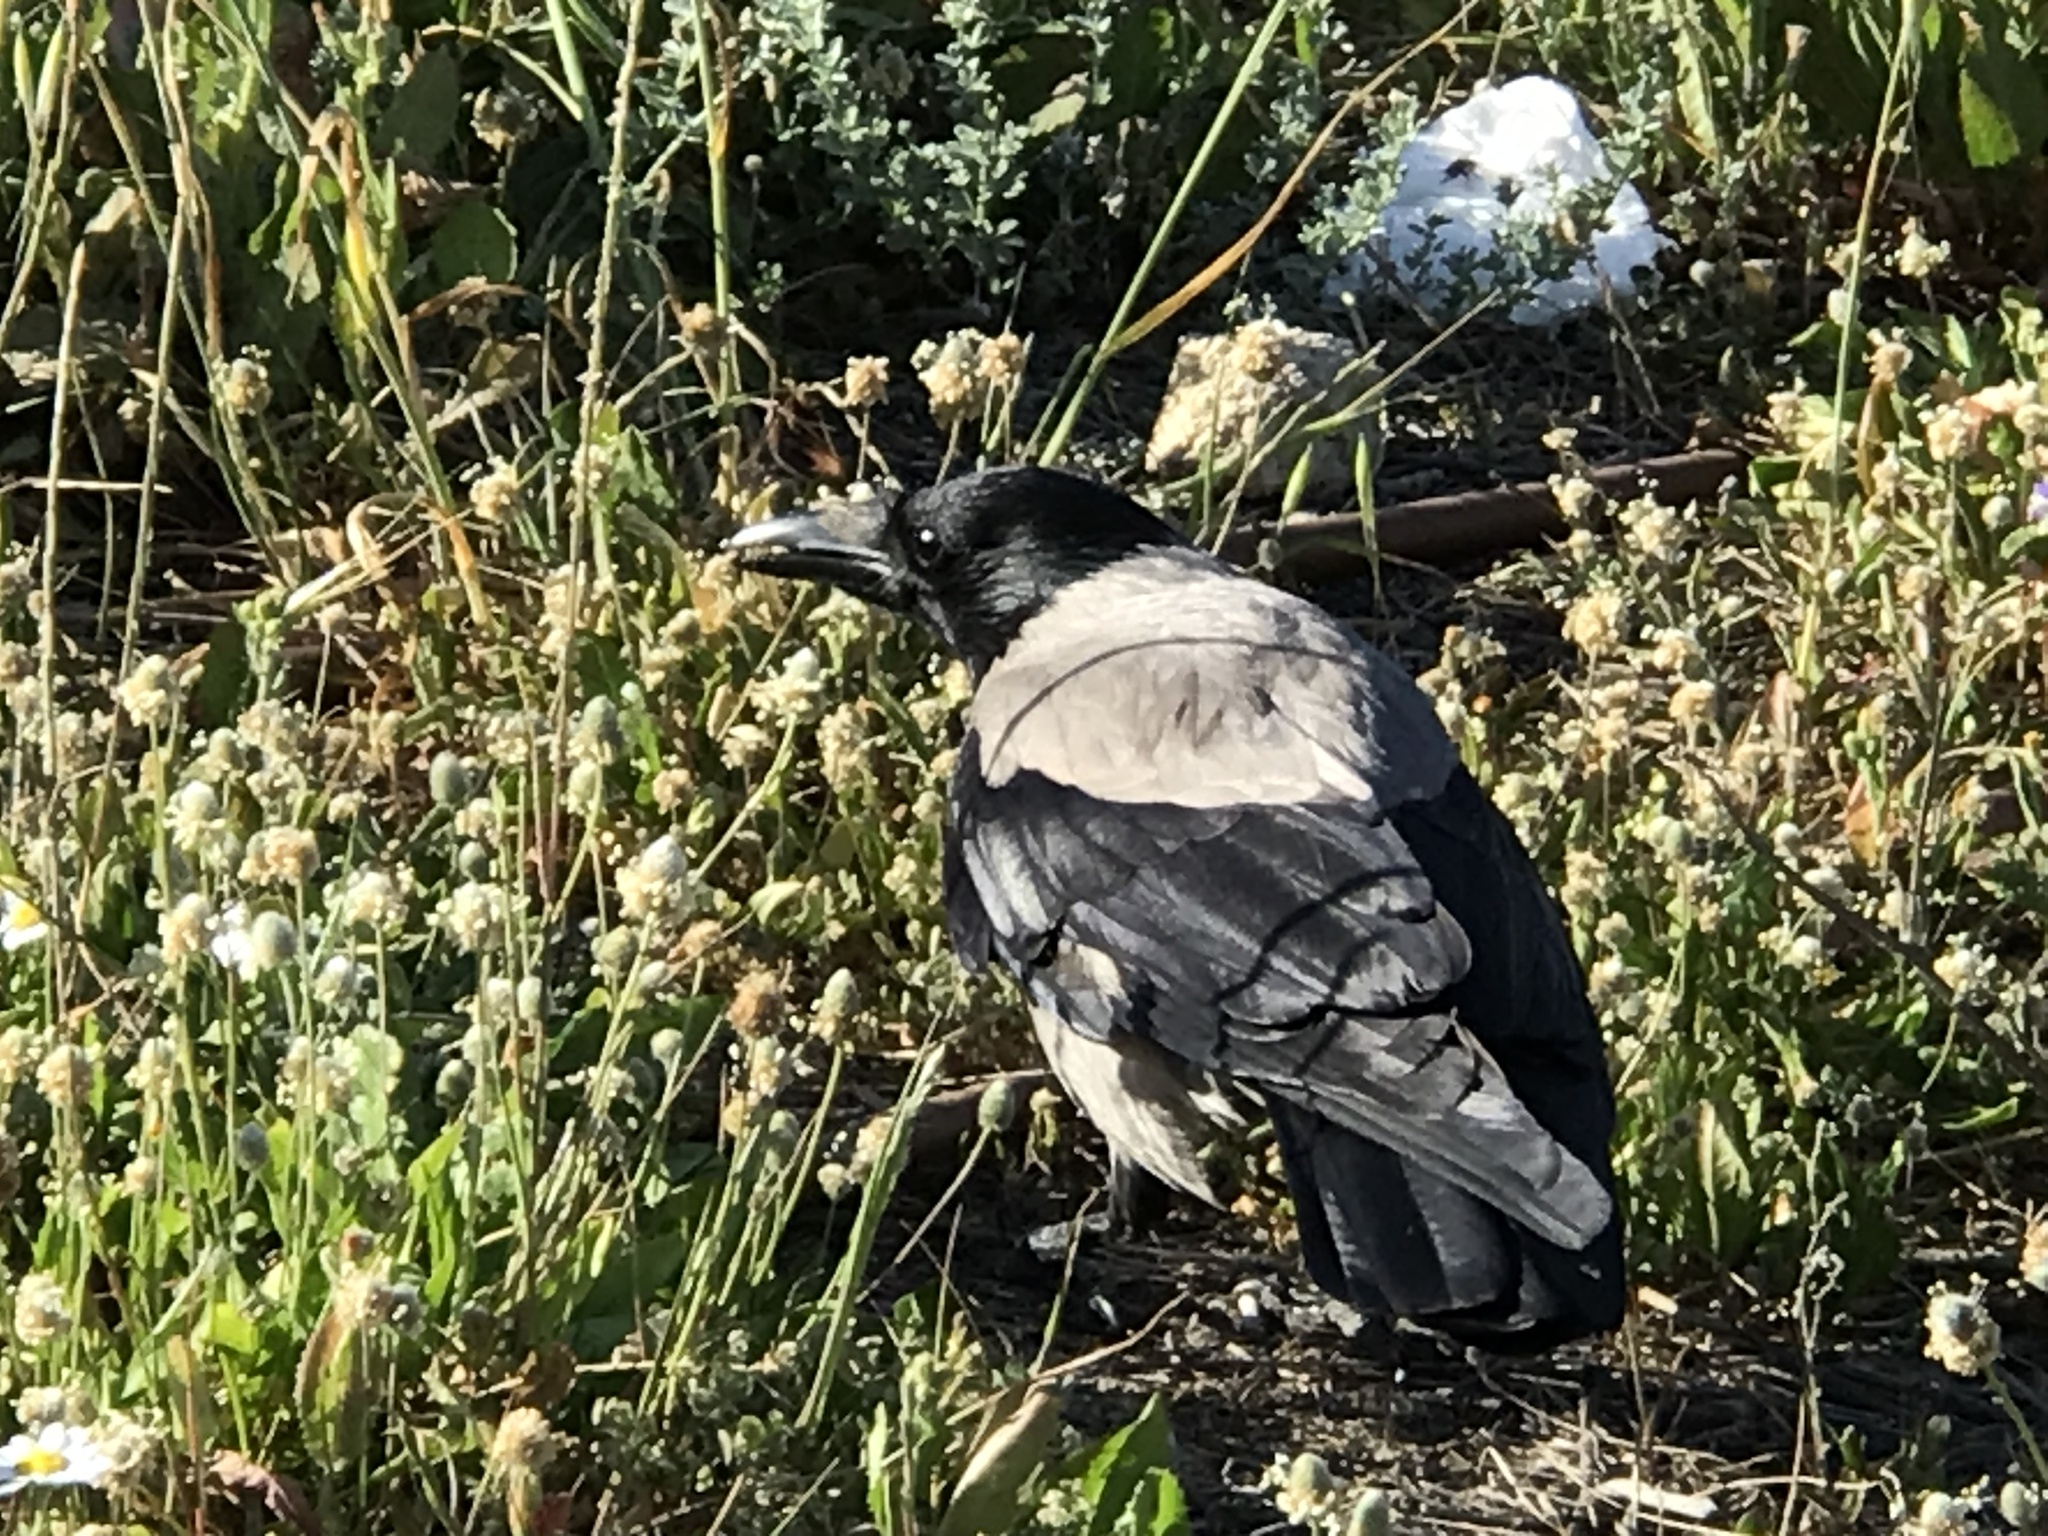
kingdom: Animalia
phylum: Chordata
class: Aves
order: Passeriformes
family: Corvidae
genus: Corvus
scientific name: Corvus cornix
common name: Hooded crow
